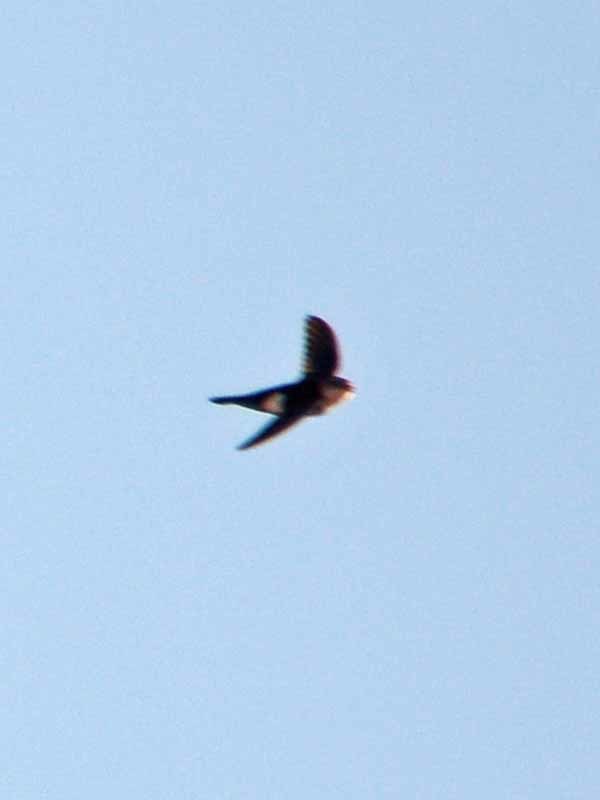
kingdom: Animalia
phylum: Chordata
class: Aves
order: Apodiformes
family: Apodidae
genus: Aeronautes
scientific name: Aeronautes saxatalis
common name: White-throated swift
